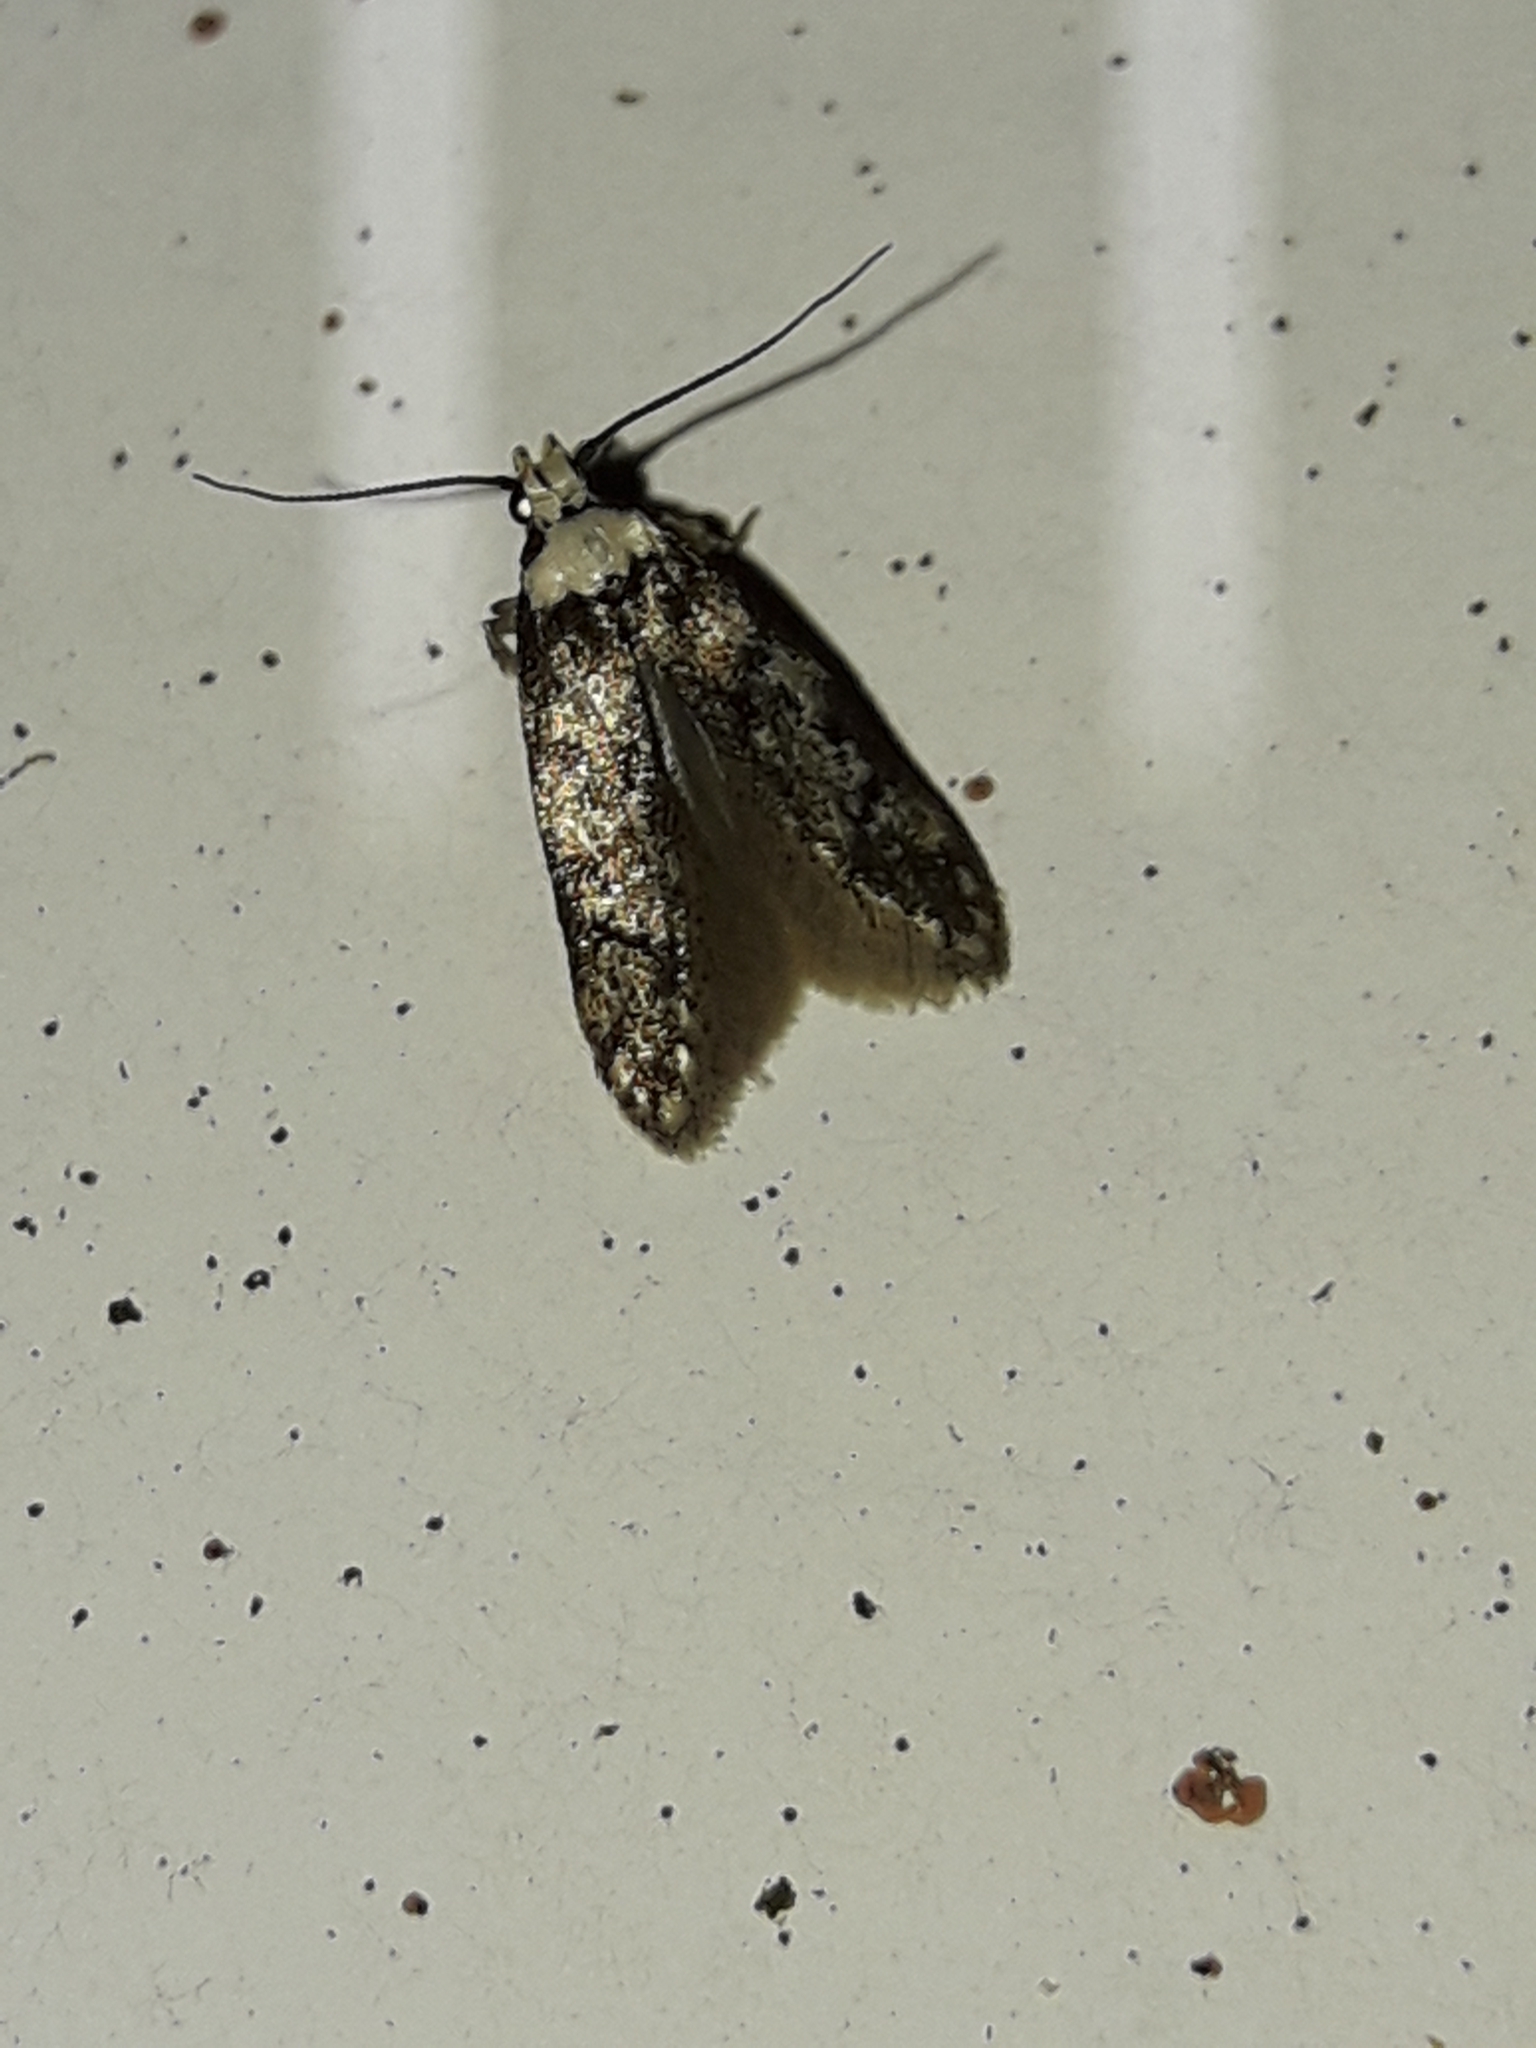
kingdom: Animalia
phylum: Arthropoda
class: Insecta
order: Lepidoptera
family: Oecophoridae
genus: Endrosis
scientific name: Endrosis sarcitrella
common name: White-shouldered house moth
